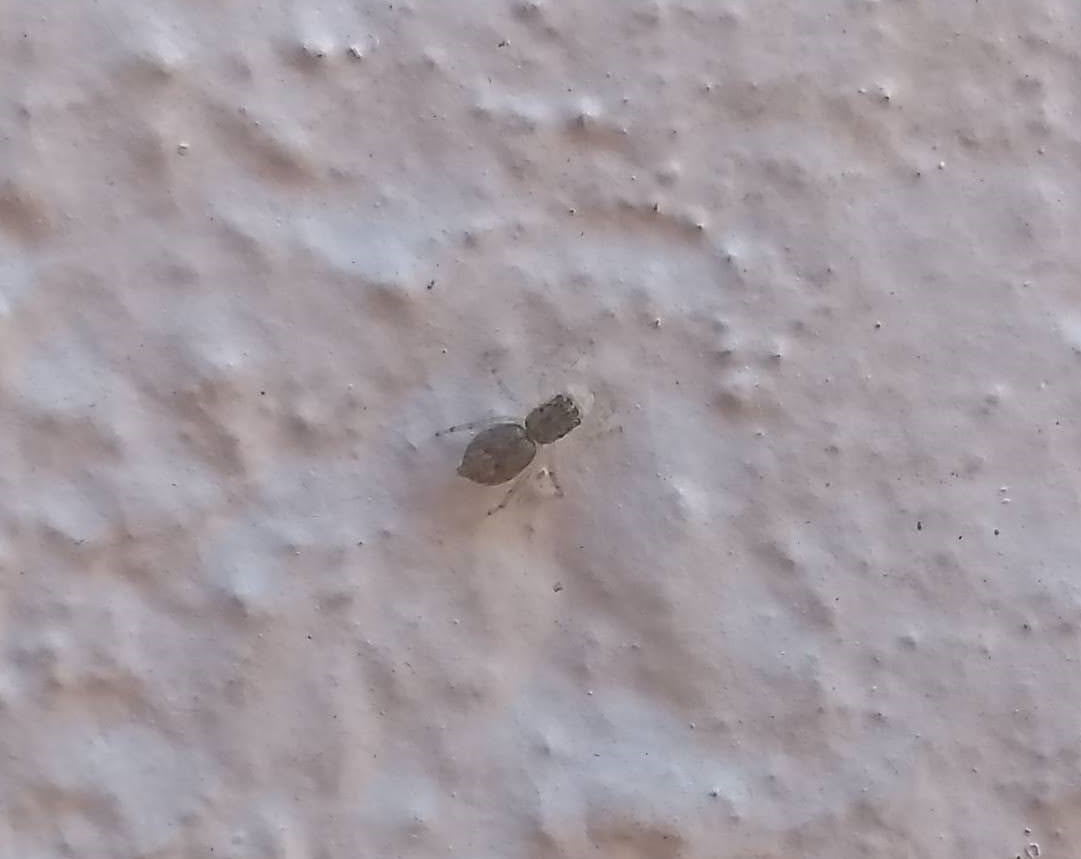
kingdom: Animalia
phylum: Arthropoda
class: Arachnida
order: Araneae
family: Salticidae
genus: Menemerus
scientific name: Menemerus bivittatus
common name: Gray wall jumper
